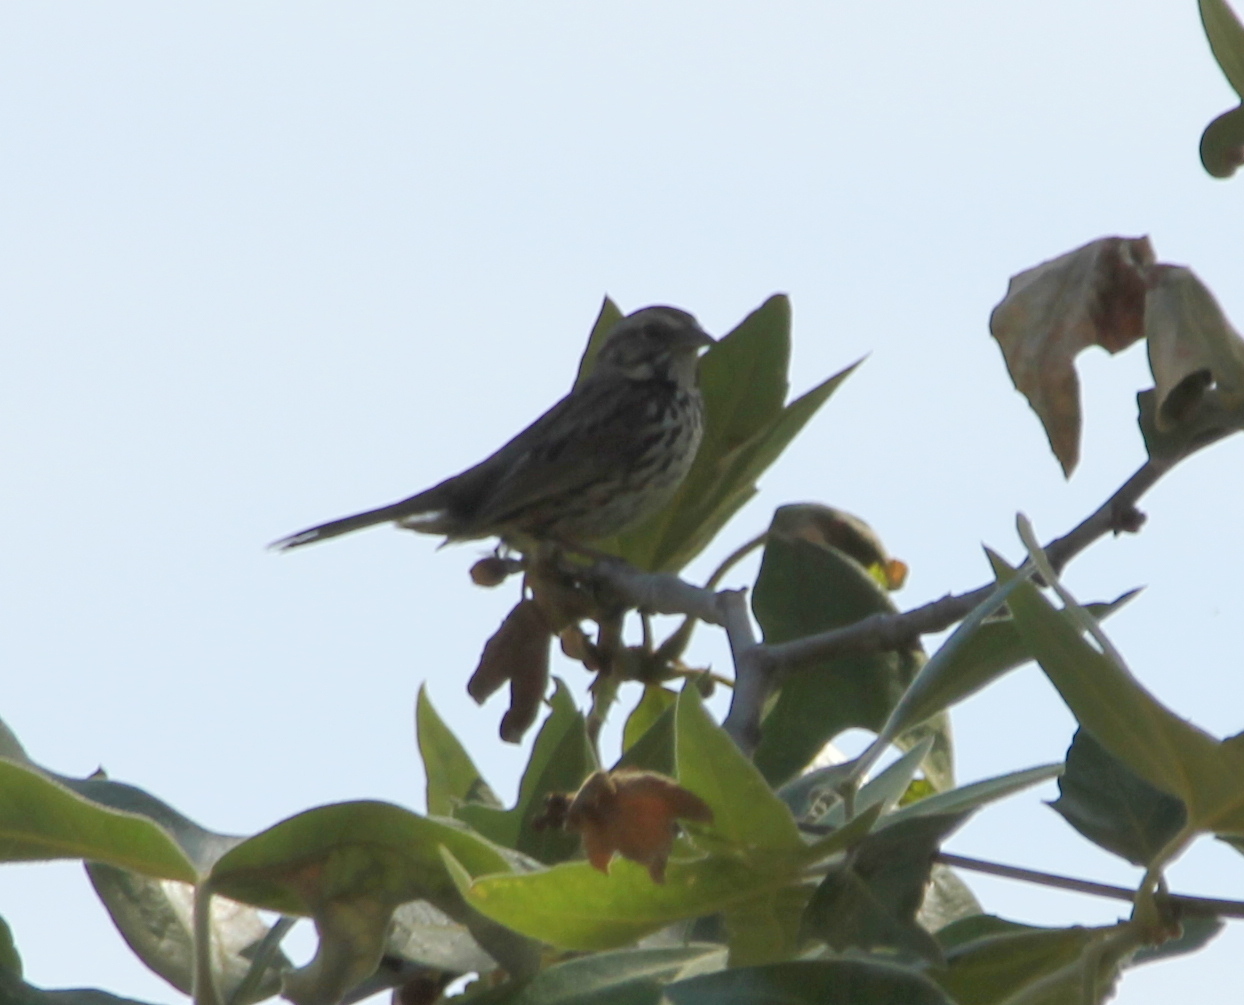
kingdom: Animalia
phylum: Chordata
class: Aves
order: Passeriformes
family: Passerellidae
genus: Melospiza
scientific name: Melospiza melodia
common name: Song sparrow
